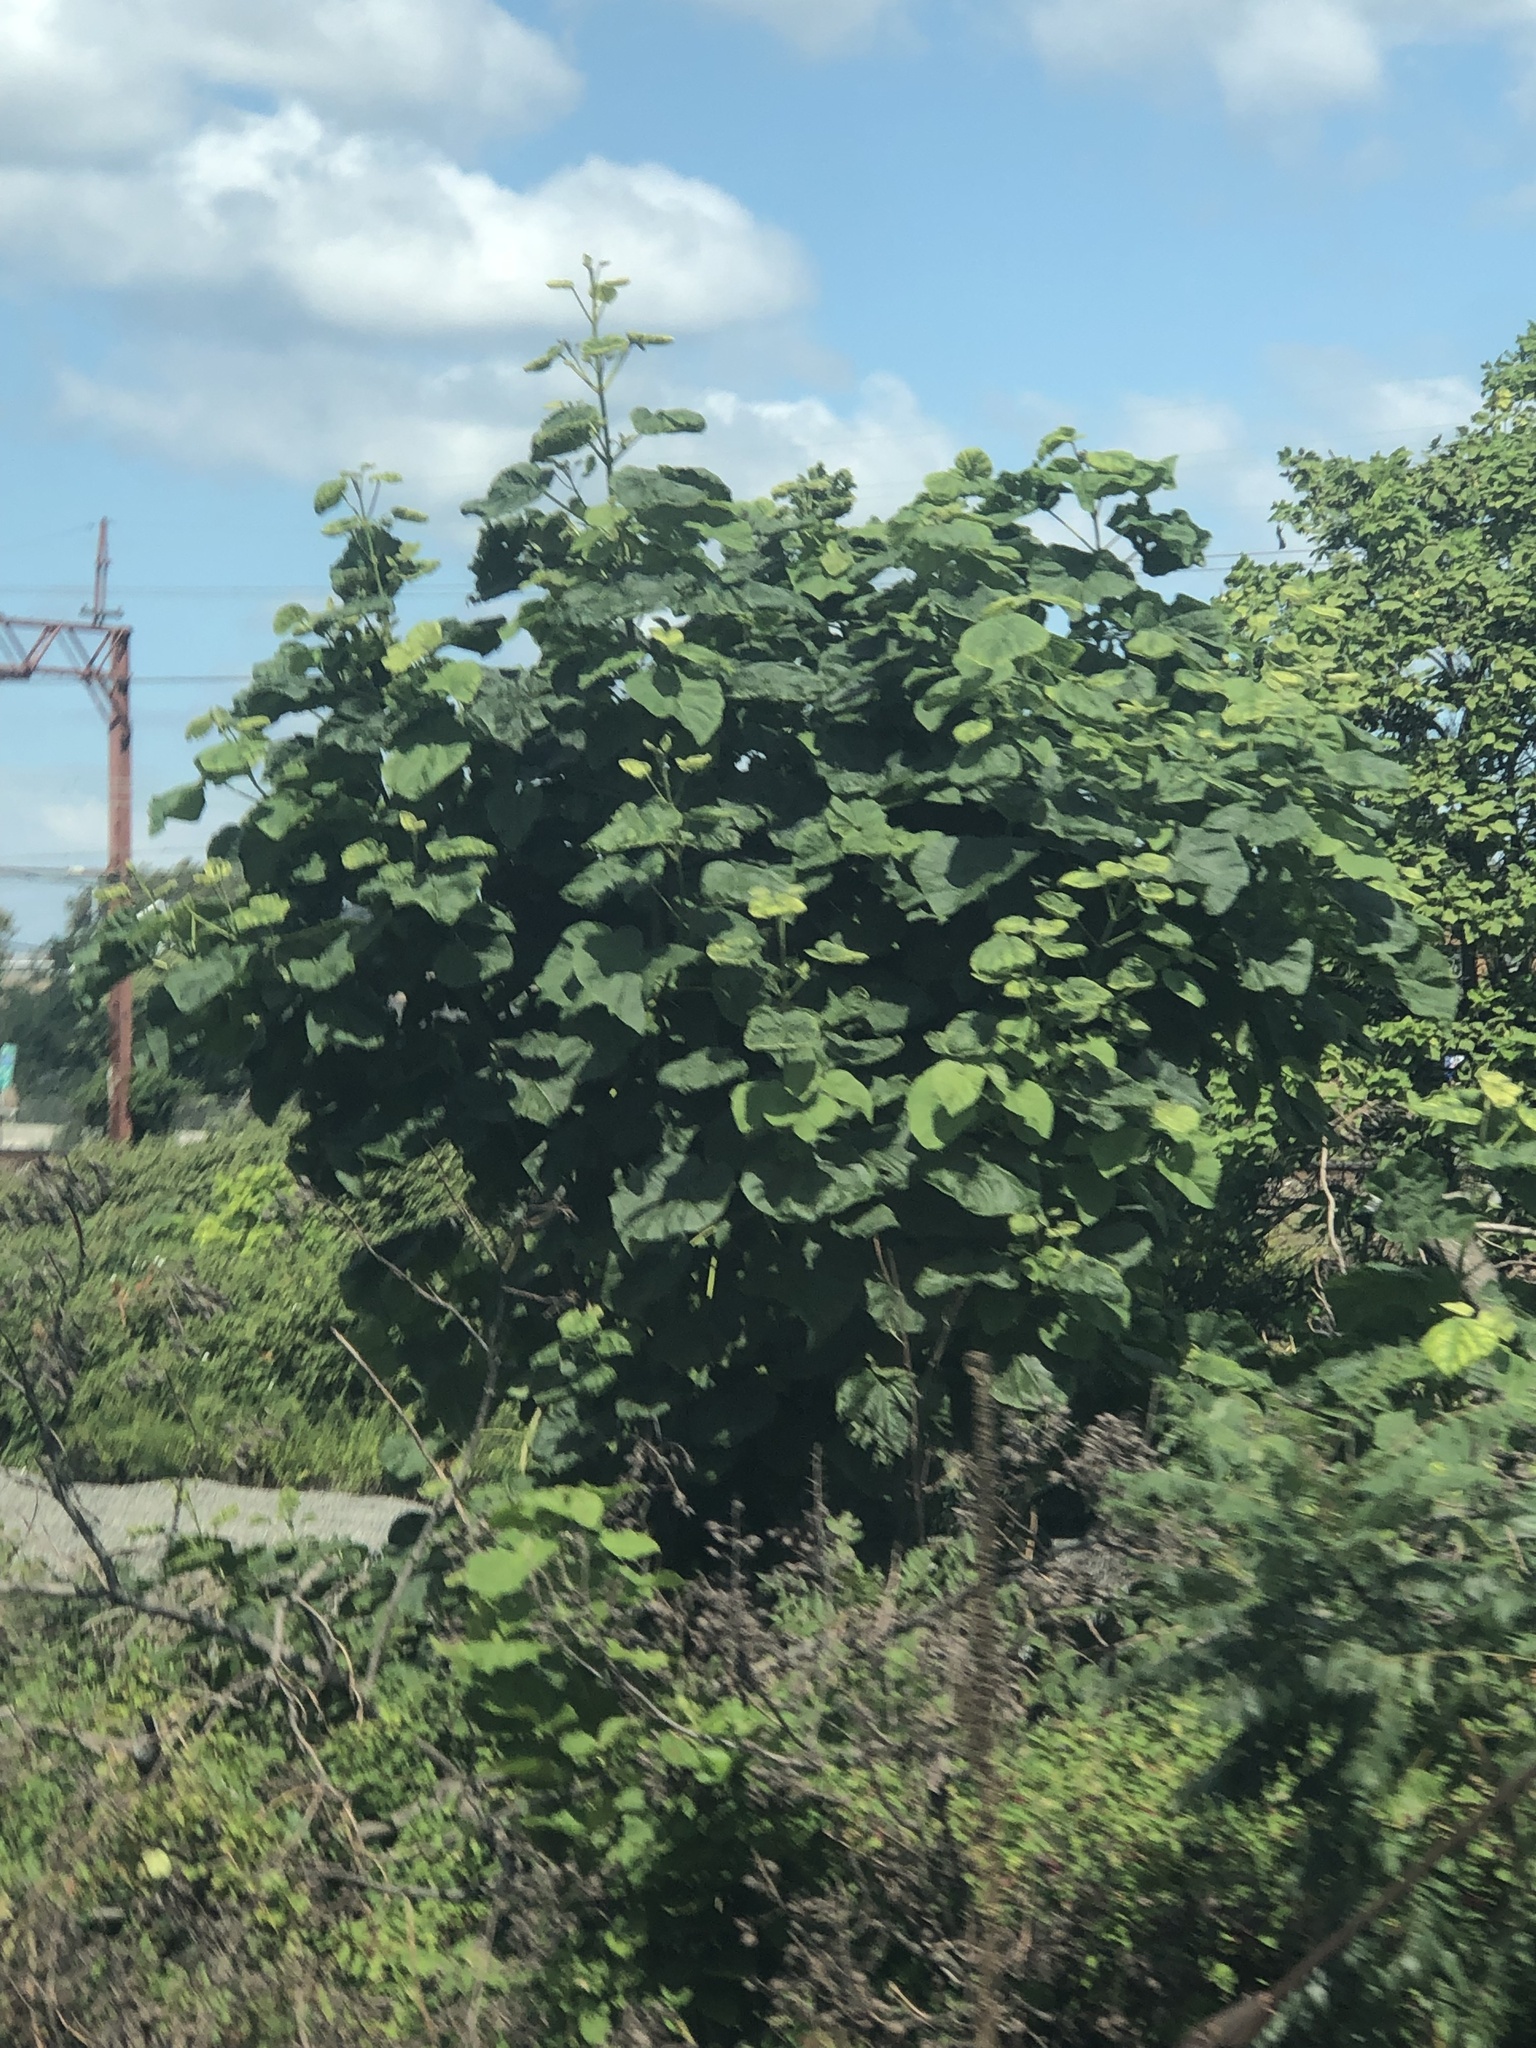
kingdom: Plantae
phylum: Tracheophyta
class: Magnoliopsida
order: Lamiales
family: Paulowniaceae
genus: Paulownia
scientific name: Paulownia tomentosa
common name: Foxglove-tree
